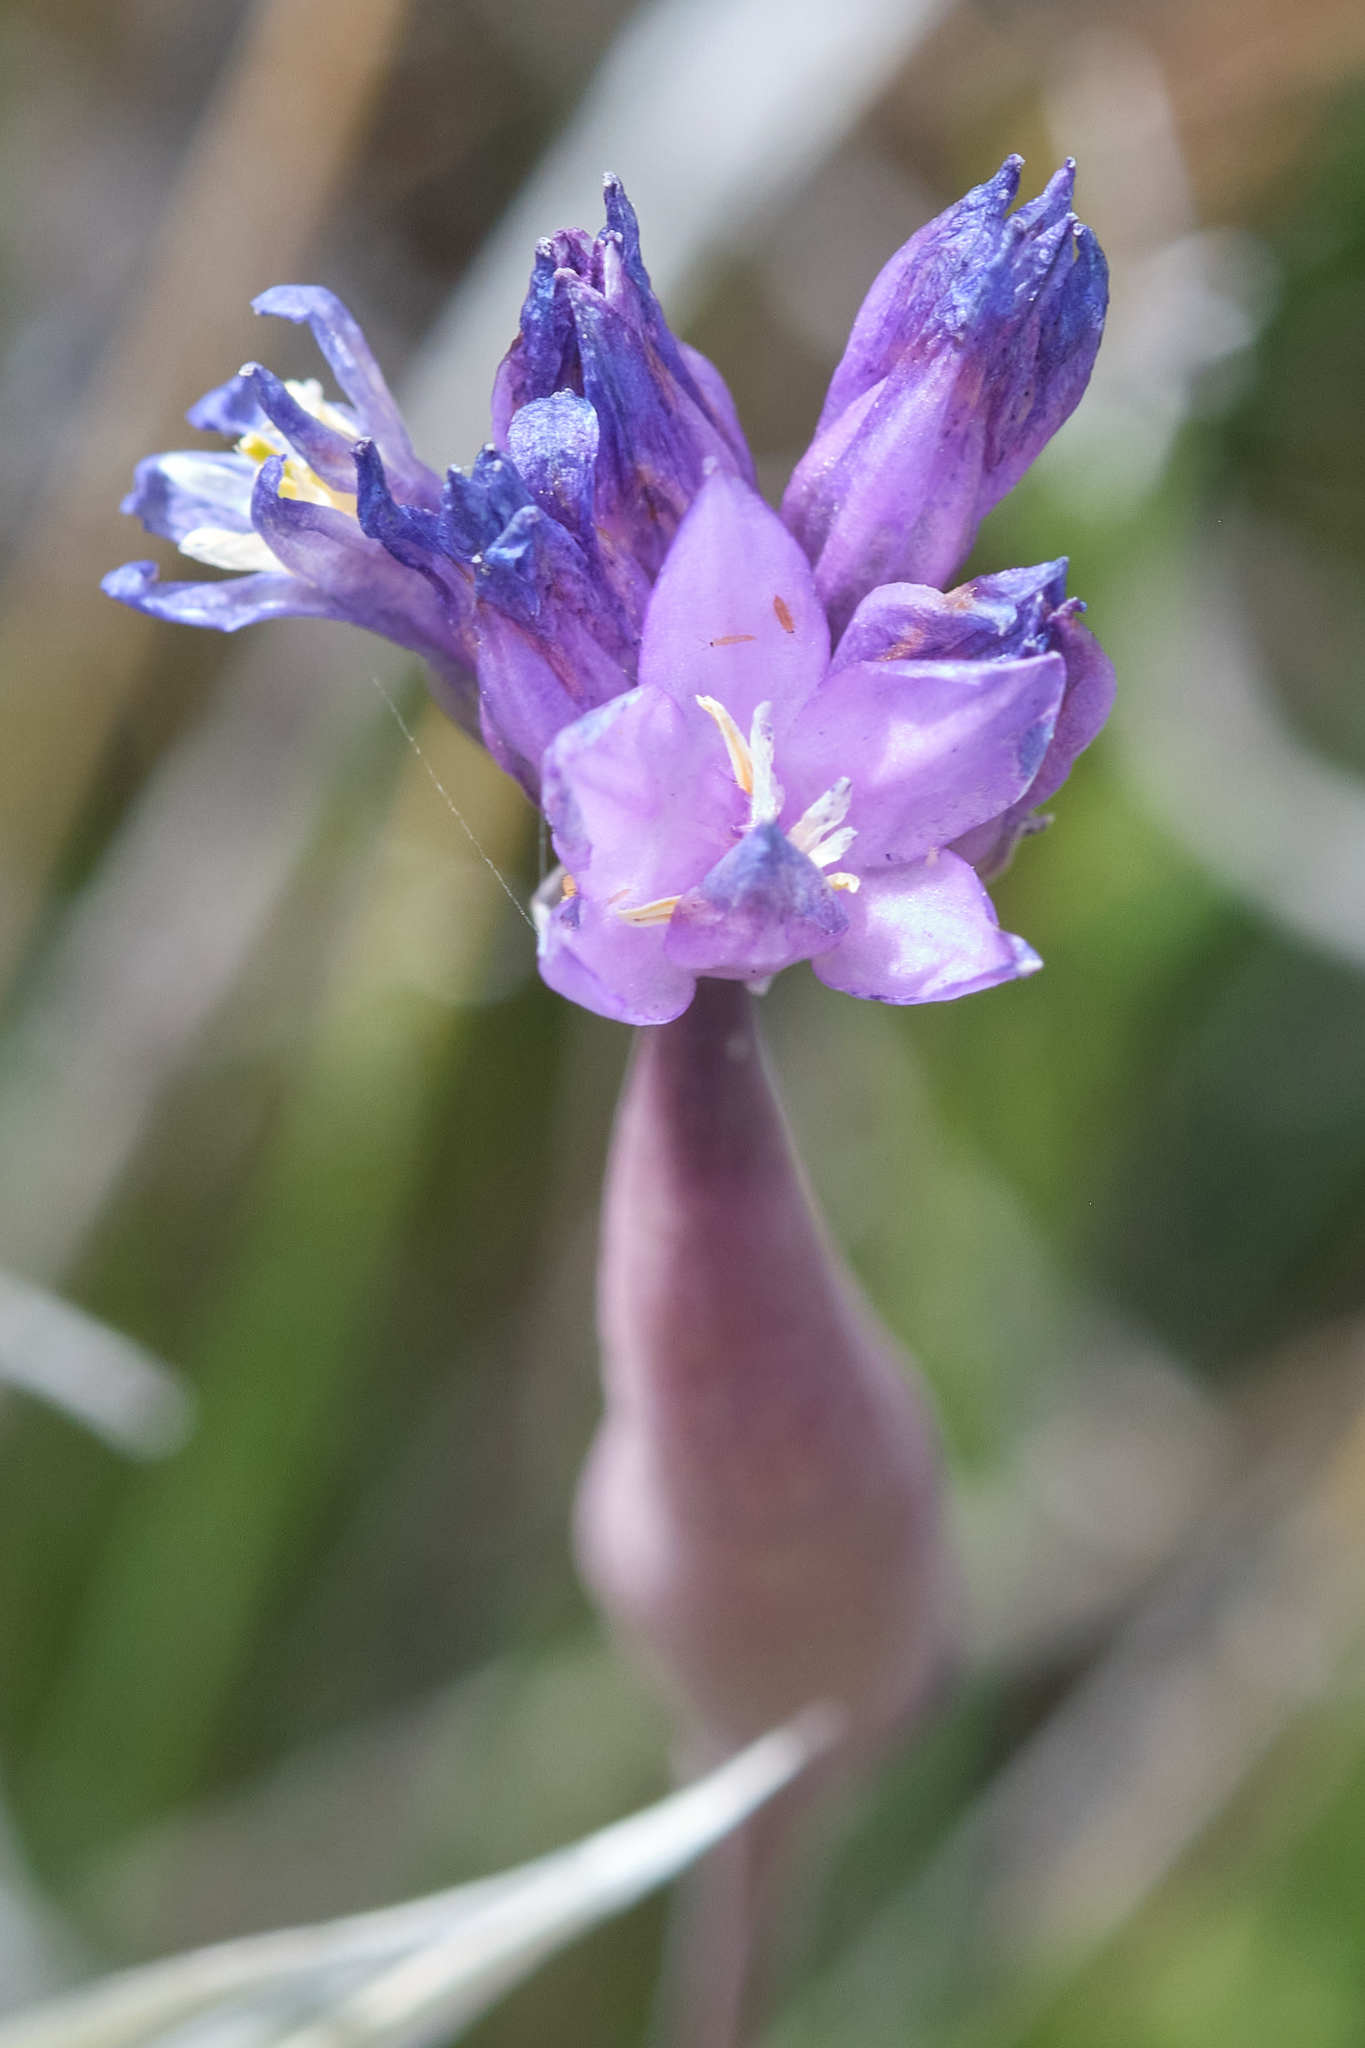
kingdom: Plantae
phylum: Tracheophyta
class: Liliopsida
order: Asparagales
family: Asparagaceae
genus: Dipterostemon
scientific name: Dipterostemon capitatus
